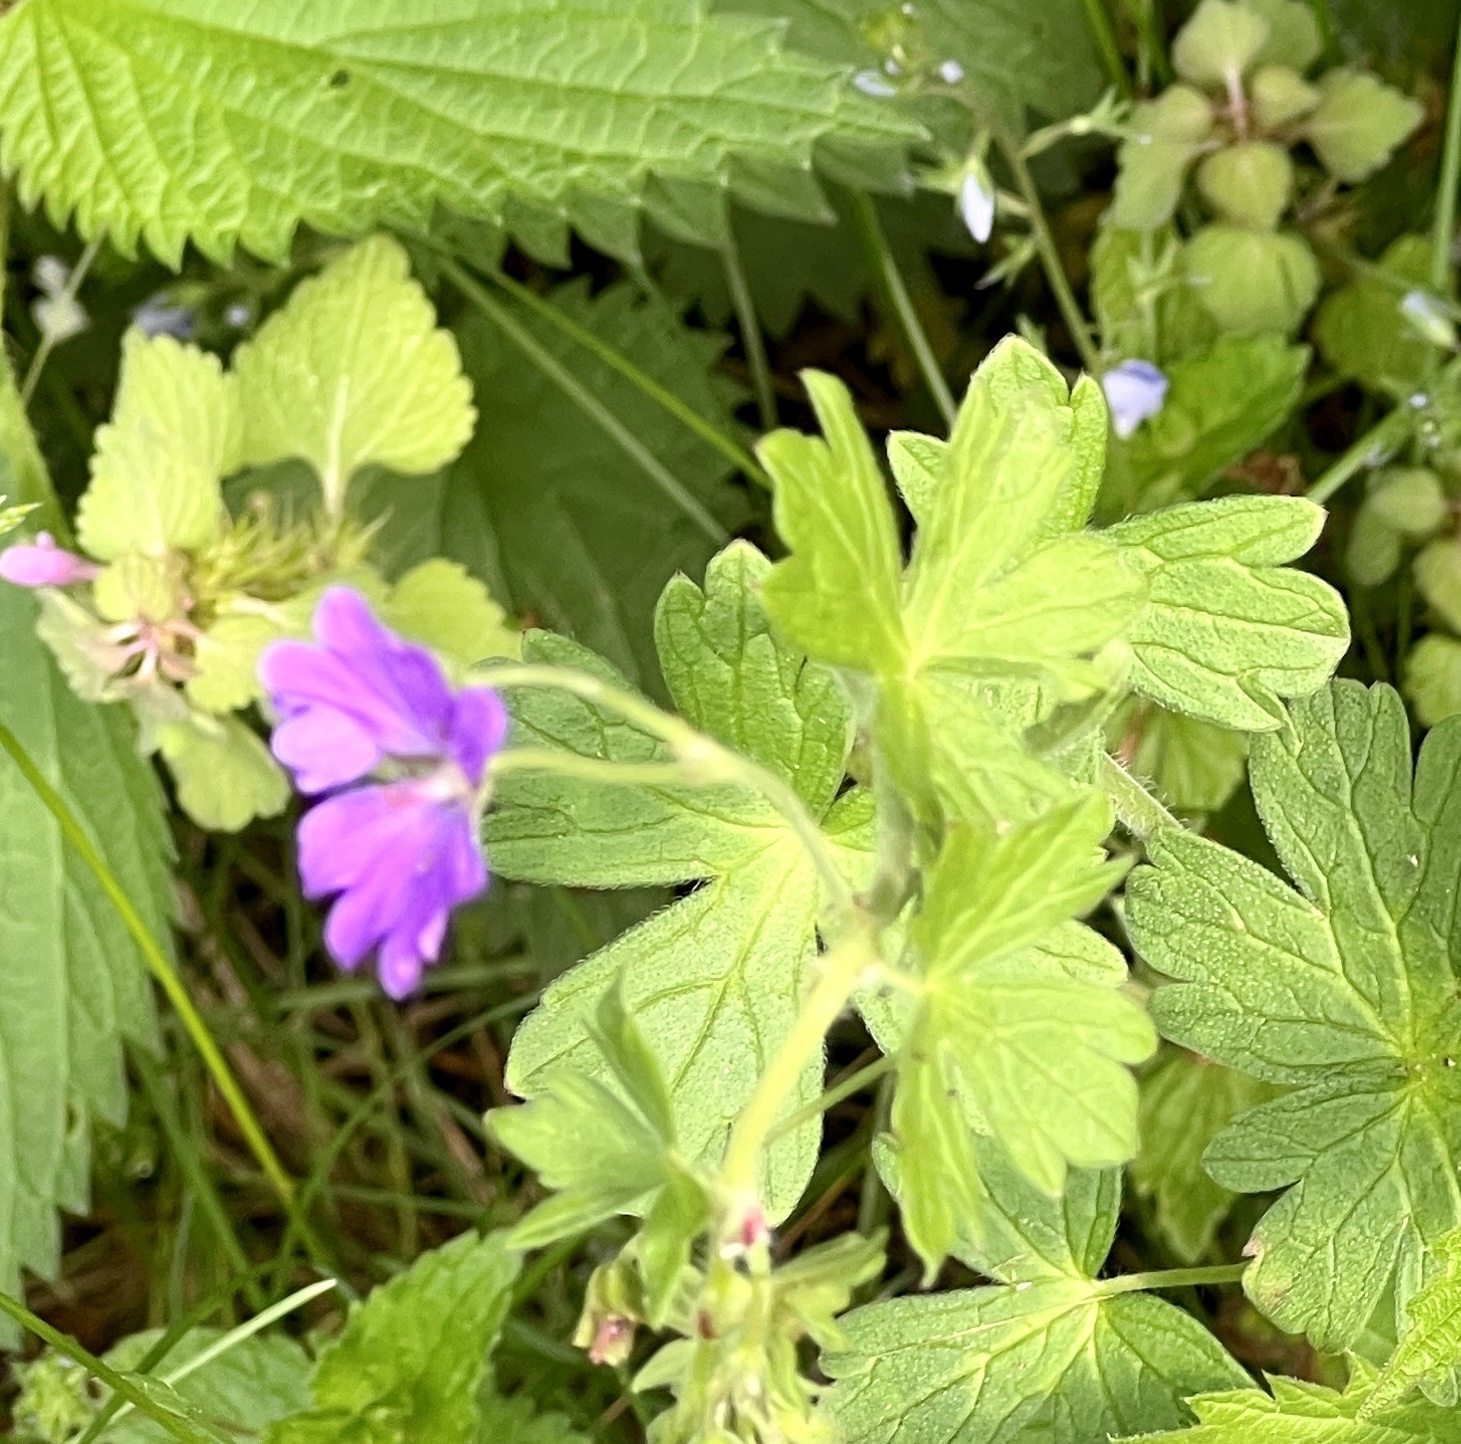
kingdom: Plantae
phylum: Tracheophyta
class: Magnoliopsida
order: Geraniales
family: Geraniaceae
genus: Geranium
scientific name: Geranium pyrenaicum
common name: Hedgerow crane's-bill
